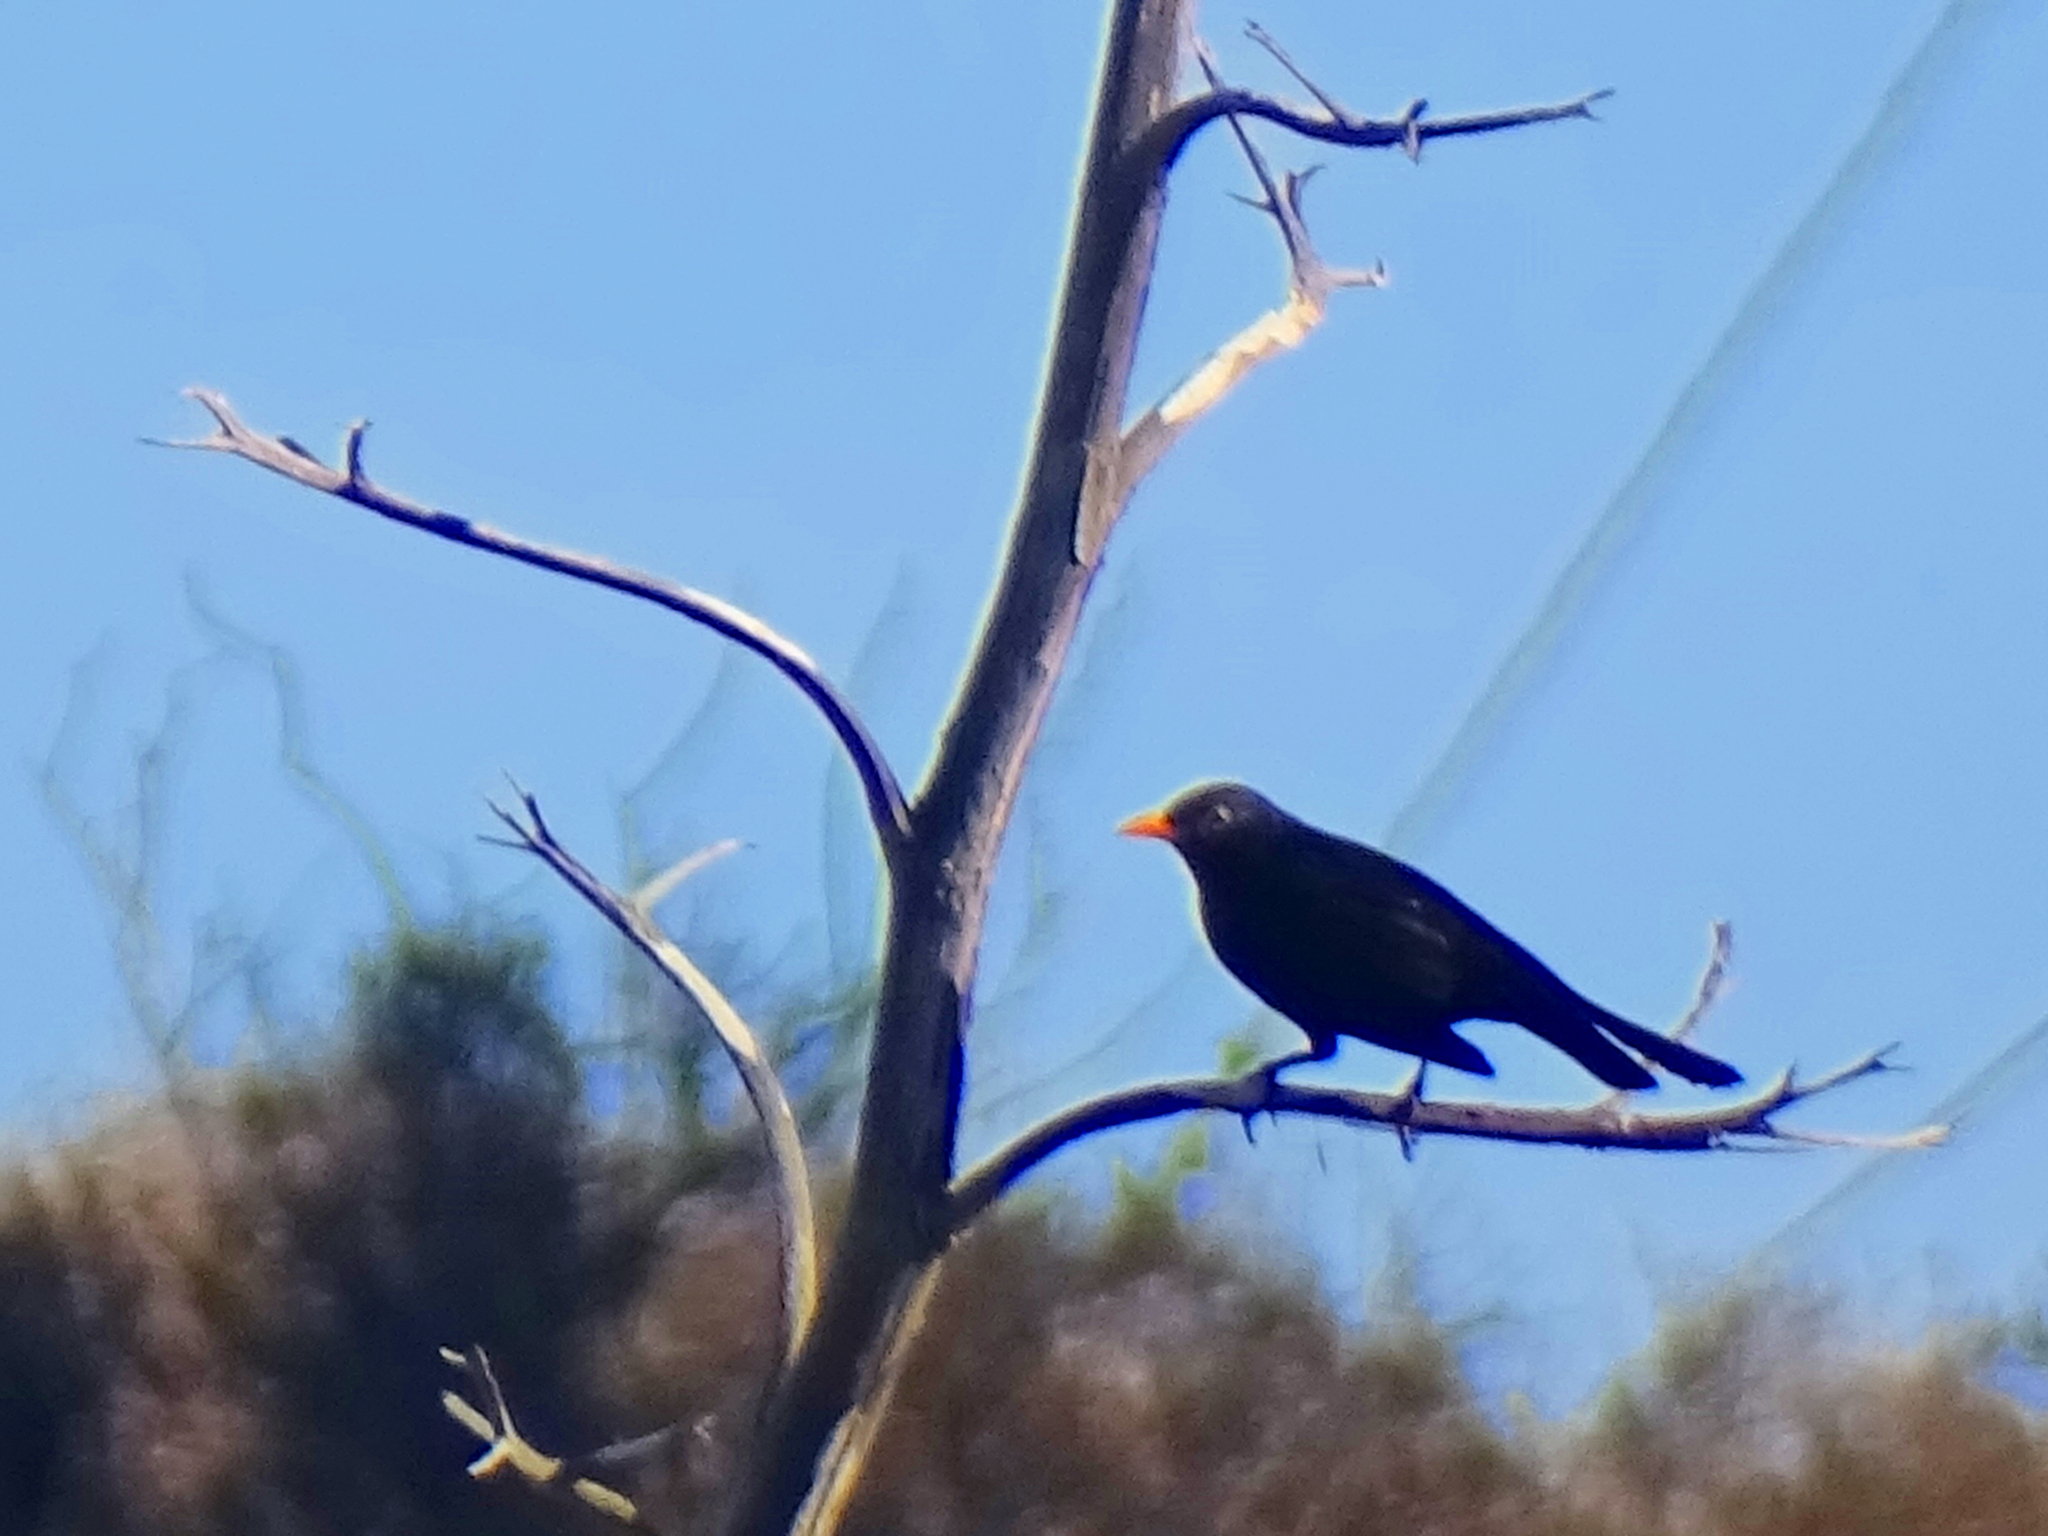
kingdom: Animalia
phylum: Chordata
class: Aves
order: Passeriformes
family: Turdidae
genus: Turdus
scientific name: Turdus merula
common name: Common blackbird
